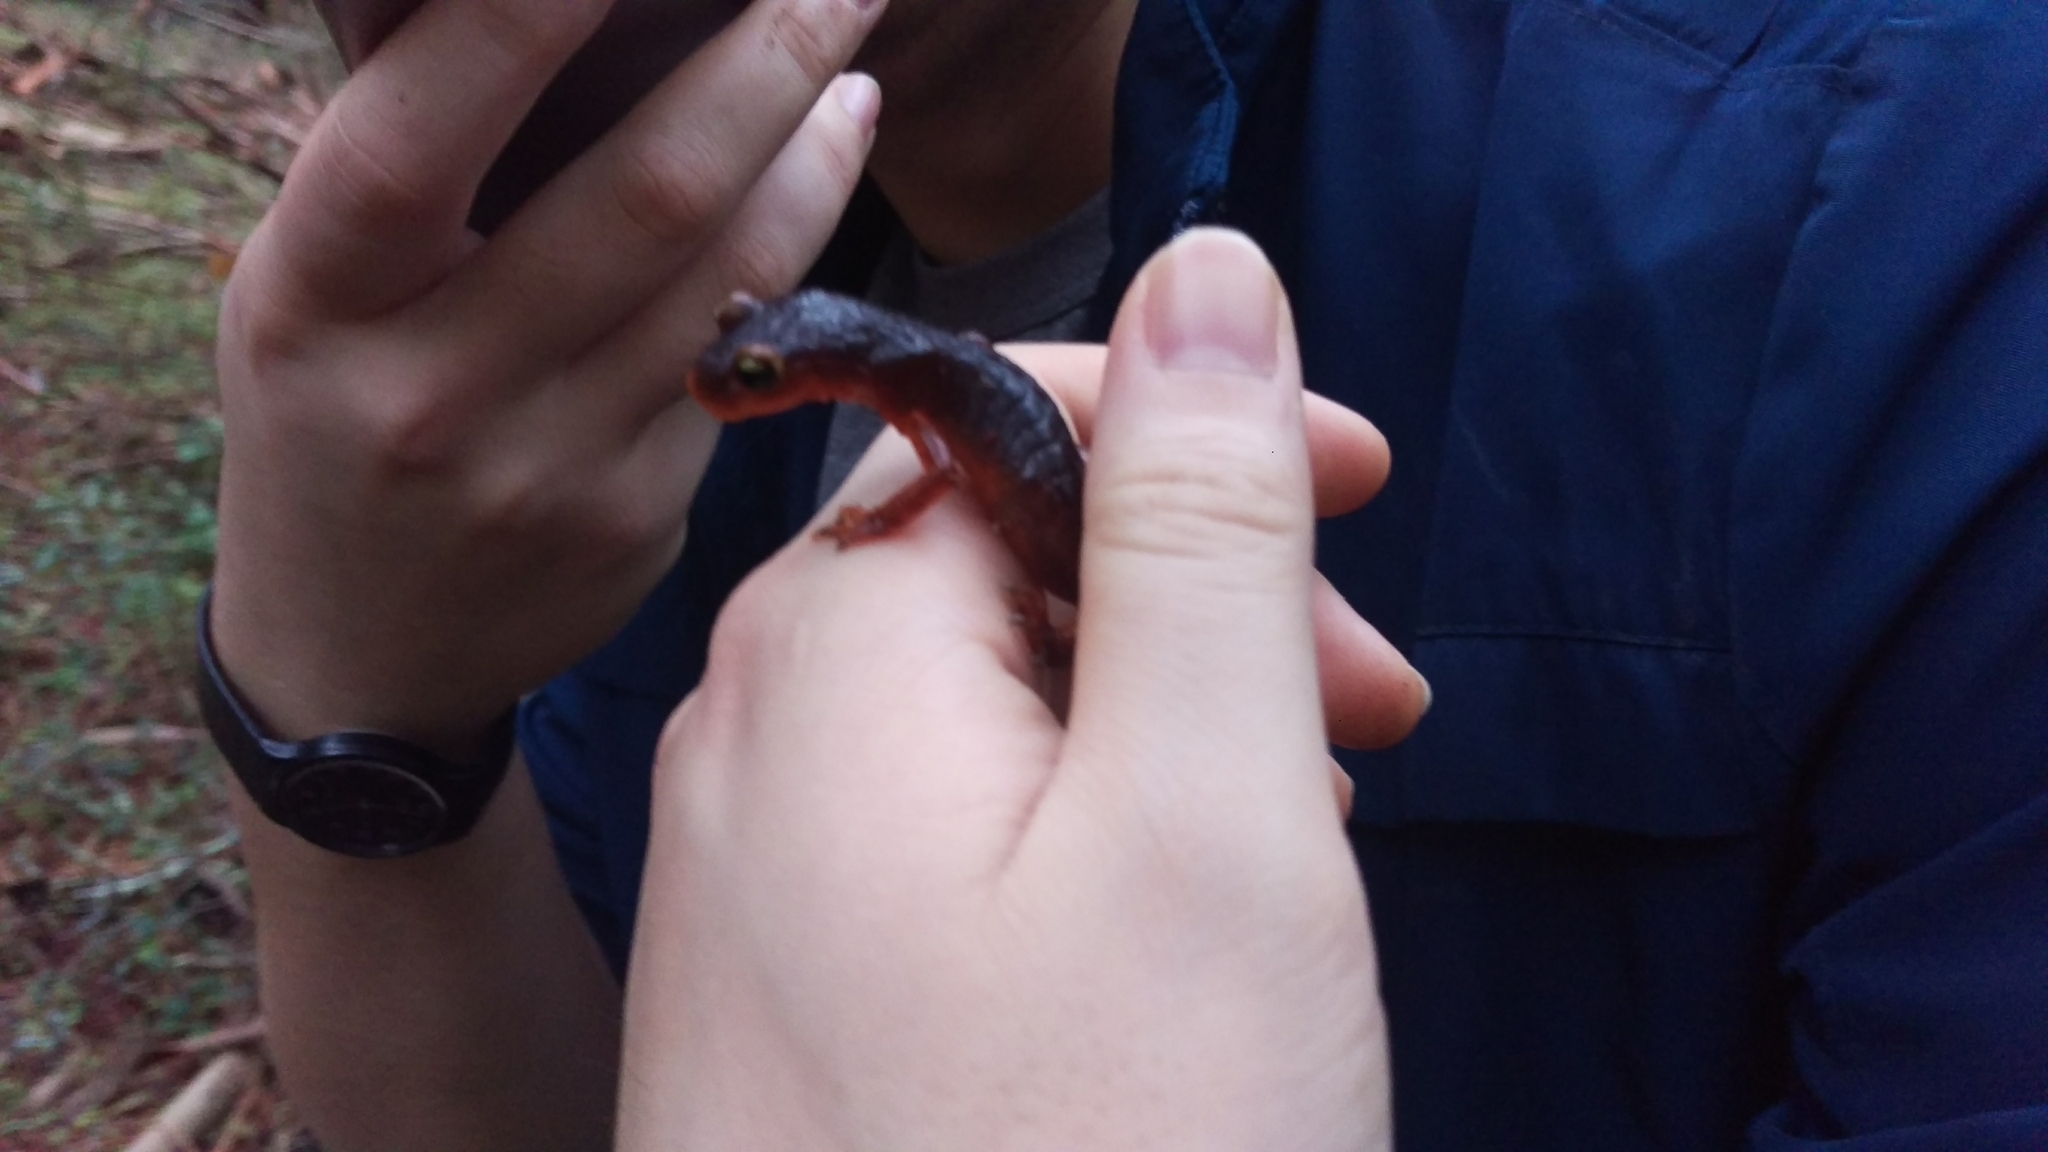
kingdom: Animalia
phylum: Chordata
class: Amphibia
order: Caudata
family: Plethodontidae
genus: Ensatina
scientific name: Ensatina eschscholtzii
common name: Ensatina
